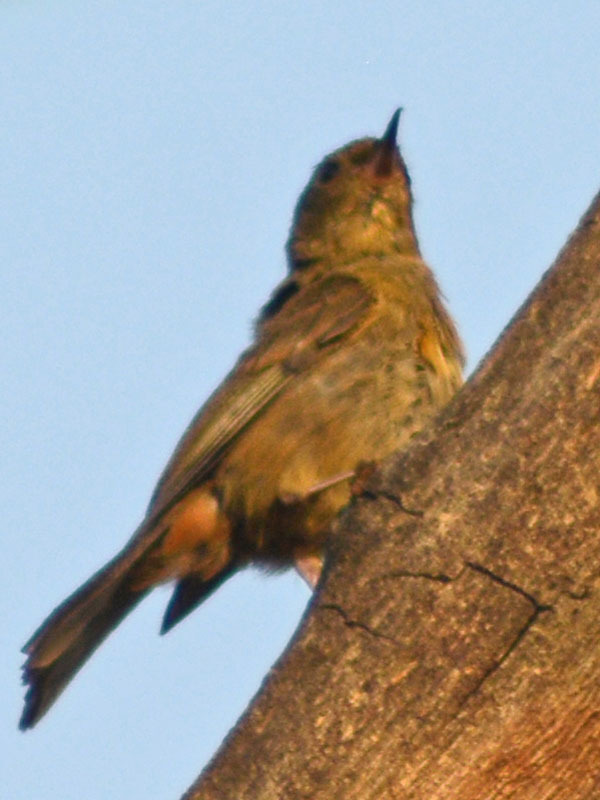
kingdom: Animalia
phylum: Chordata
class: Aves
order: Passeriformes
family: Thraupidae
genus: Diglossa
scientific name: Diglossa baritula
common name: Cinnamon-bellied flowerpiercer
